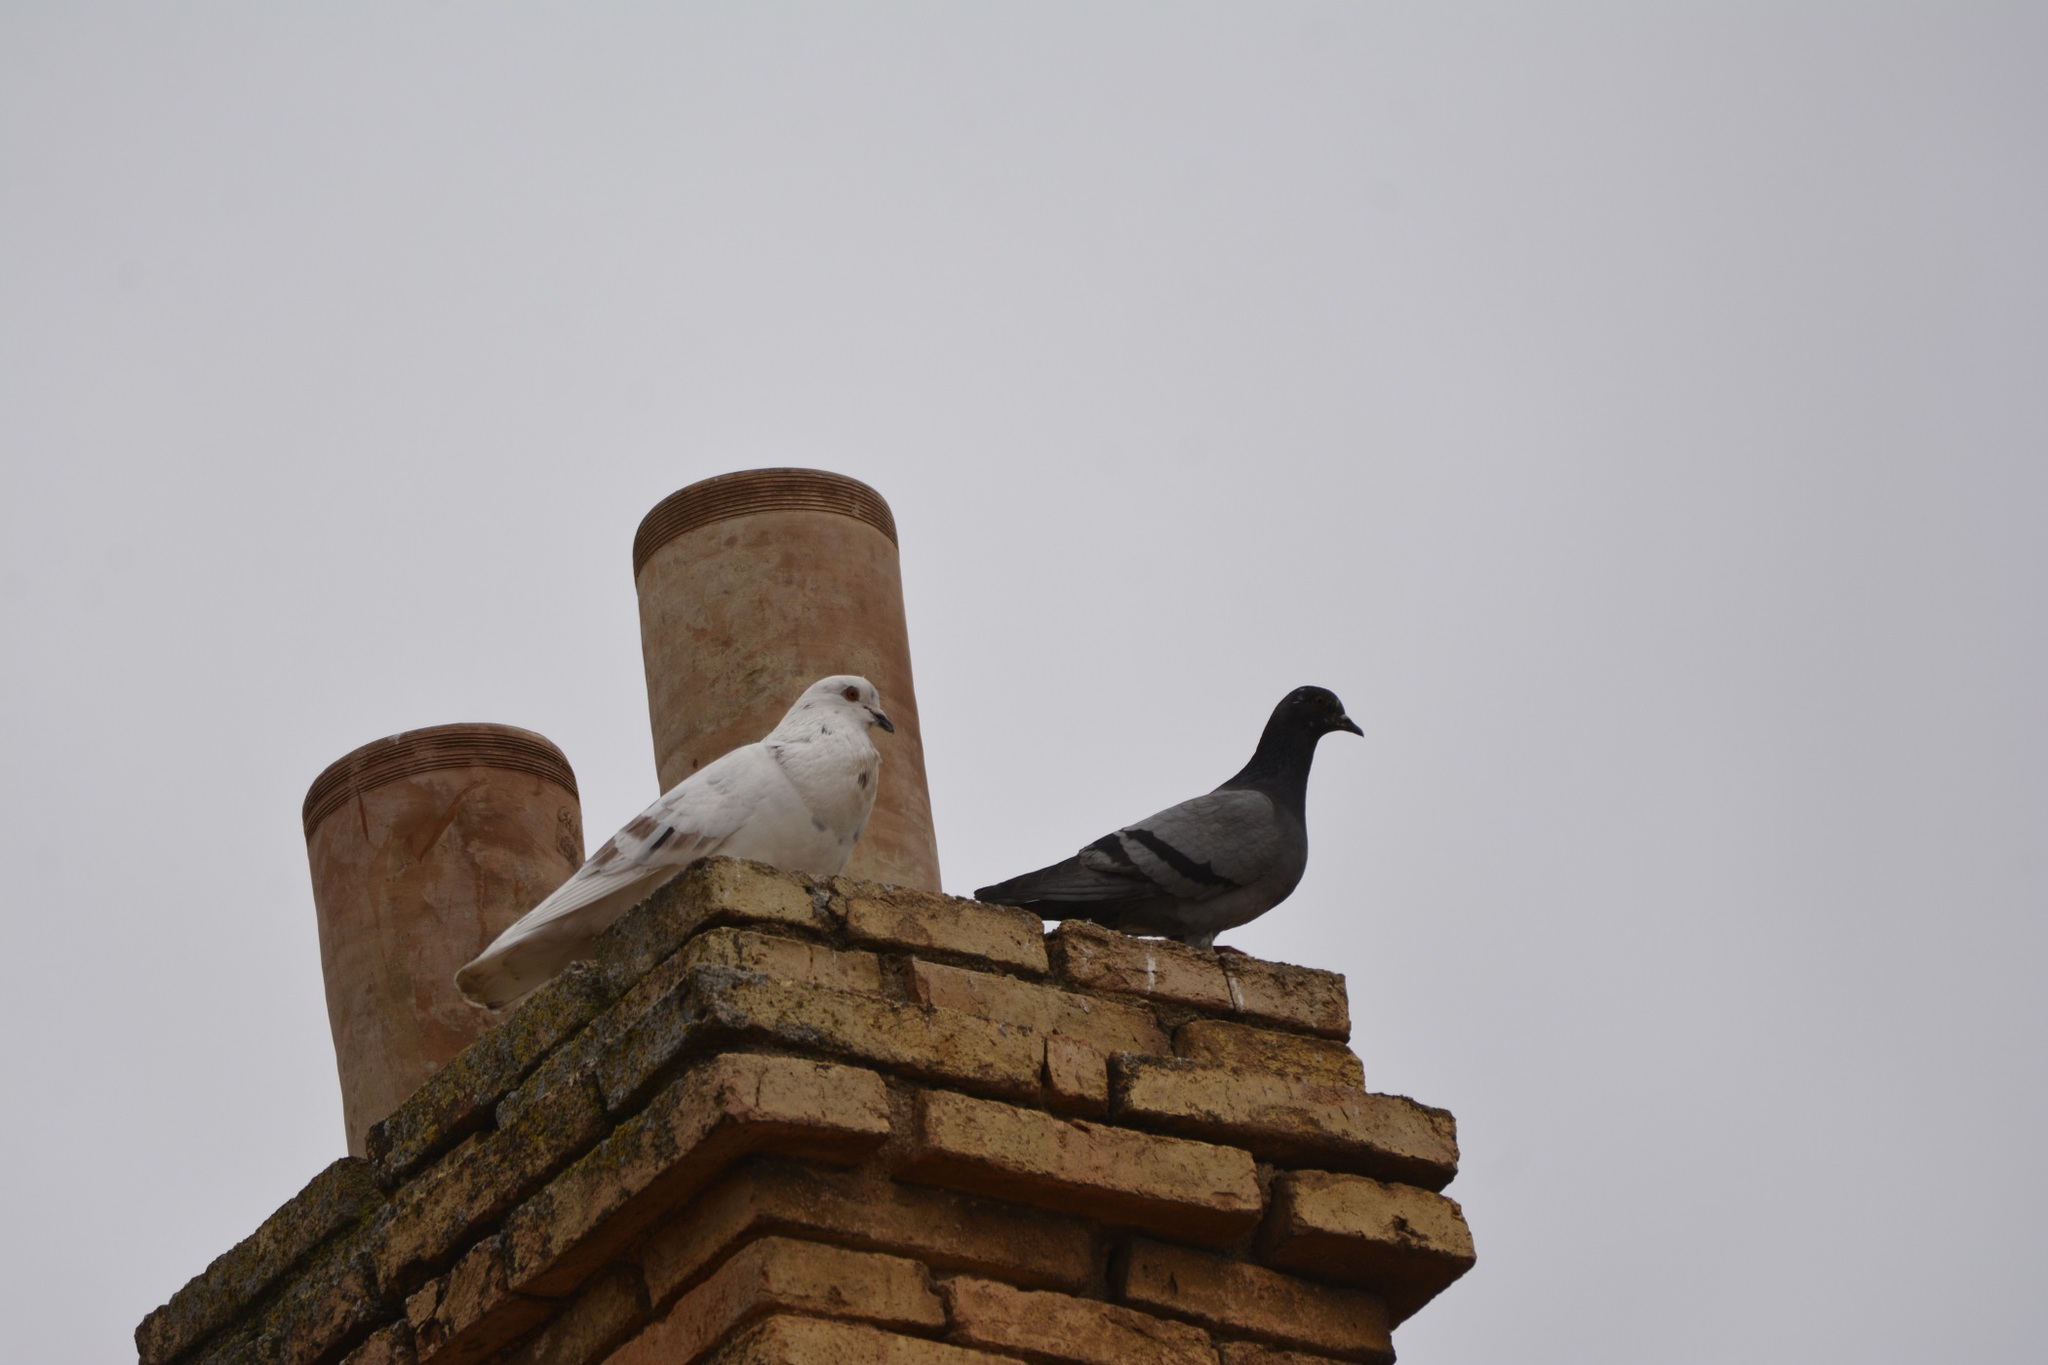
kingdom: Animalia
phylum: Chordata
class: Aves
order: Columbiformes
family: Columbidae
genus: Columba
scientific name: Columba livia
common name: Rock pigeon
